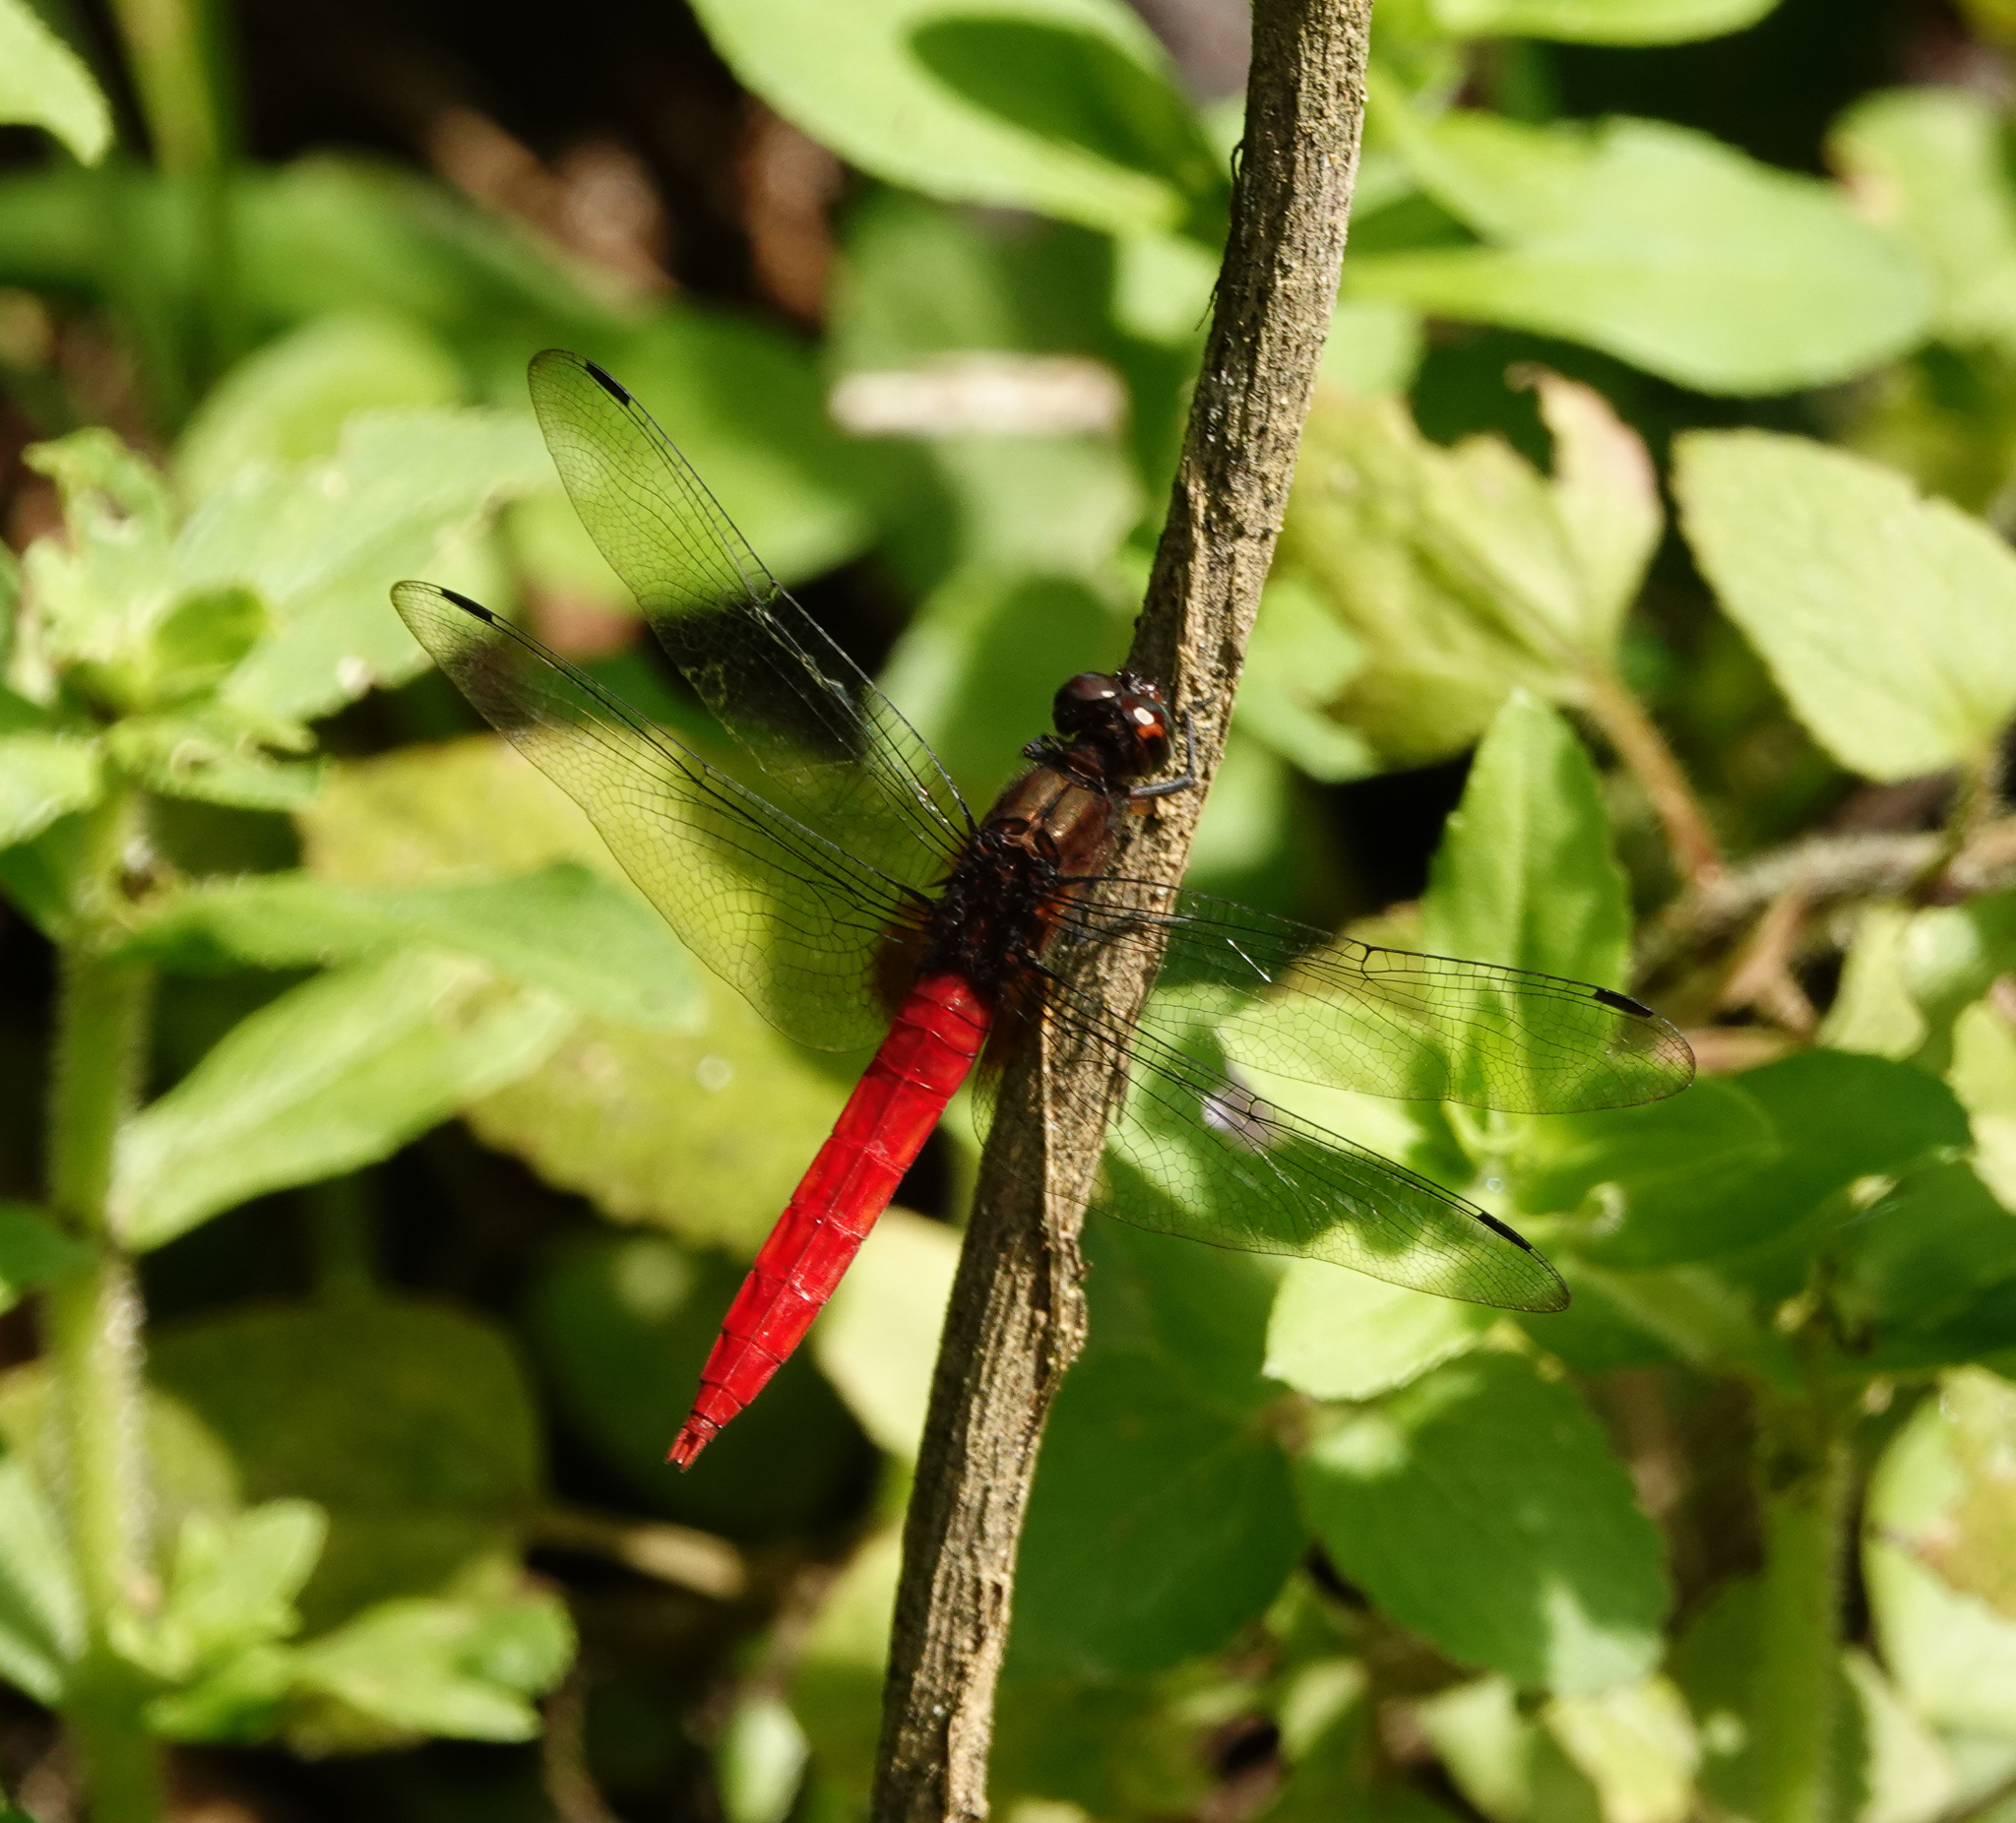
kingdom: Animalia
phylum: Arthropoda
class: Insecta
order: Odonata
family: Libellulidae
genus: Orthetrum
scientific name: Orthetrum chrysis
